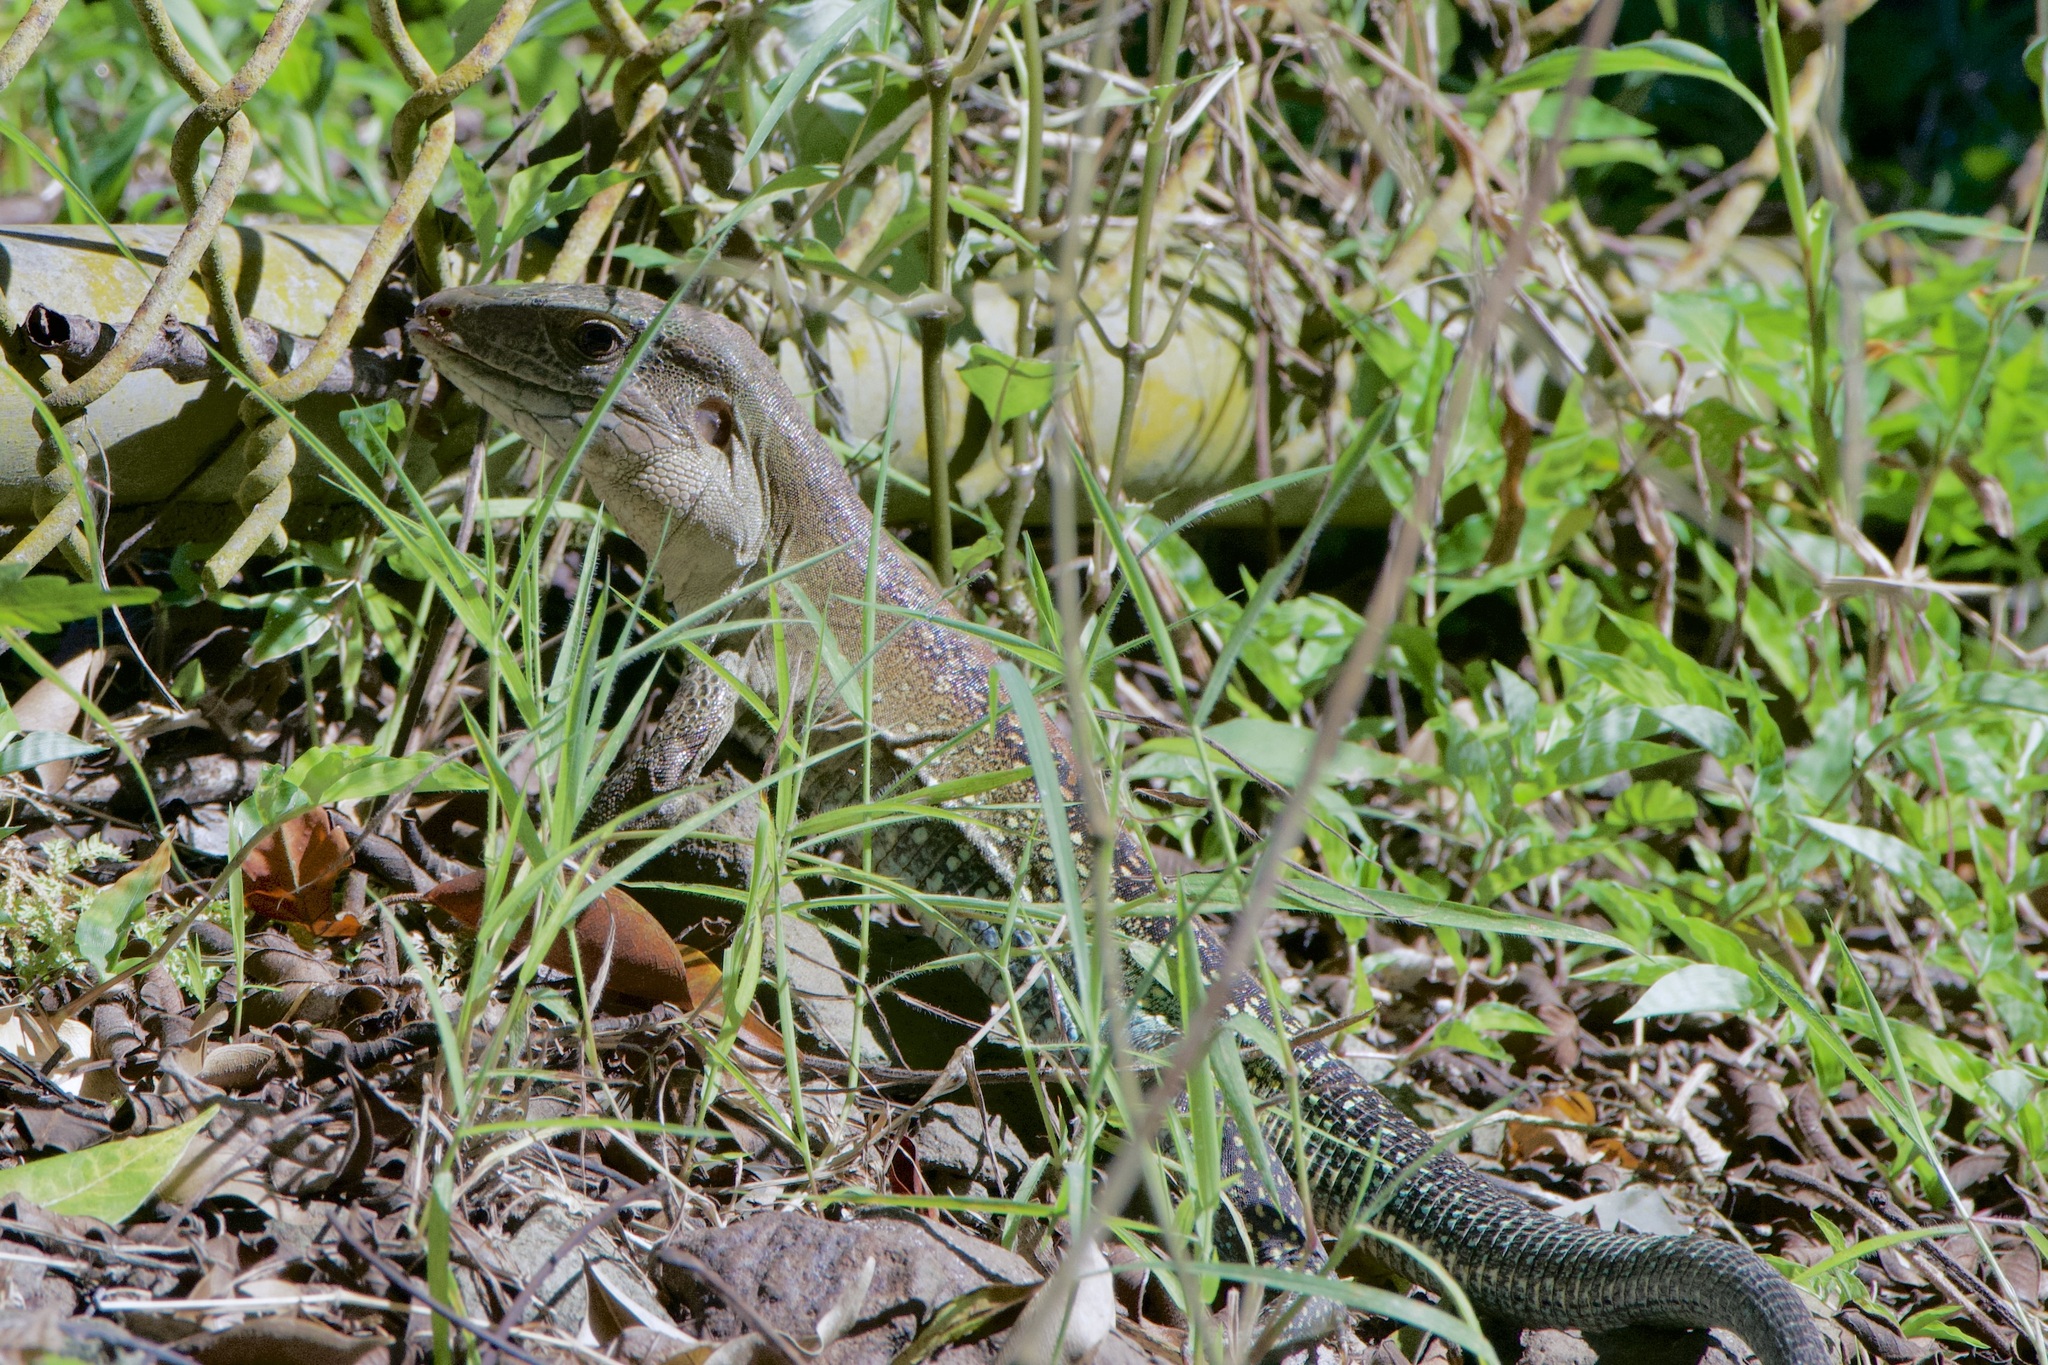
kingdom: Animalia
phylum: Chordata
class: Squamata
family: Teiidae
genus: Ameiva
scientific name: Ameiva praesignis
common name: Giant ameiva
